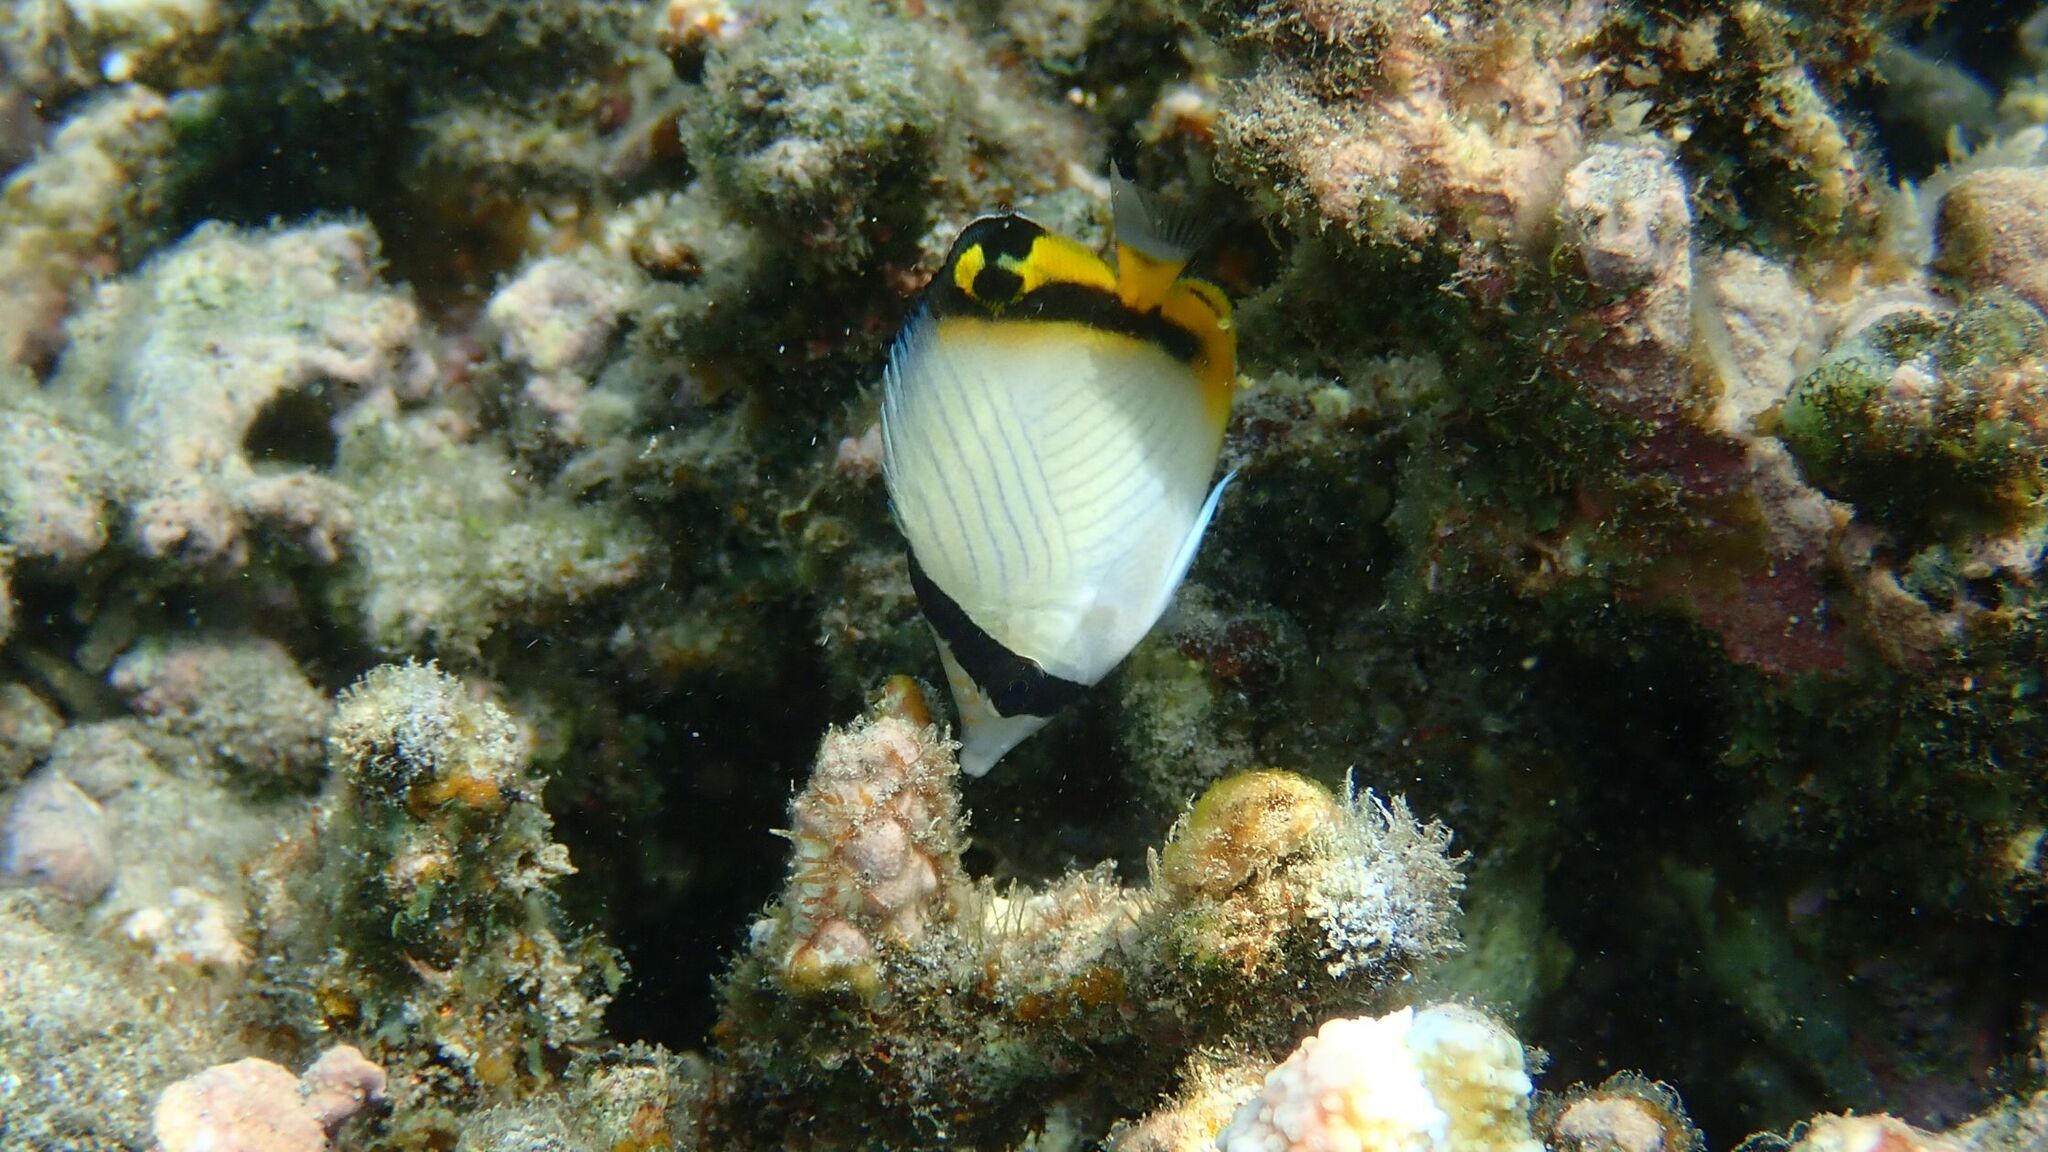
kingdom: Animalia
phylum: Chordata
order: Perciformes
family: Chaetodontidae
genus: Chaetodon
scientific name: Chaetodon vagabundus
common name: Vagabond butterflyfish
